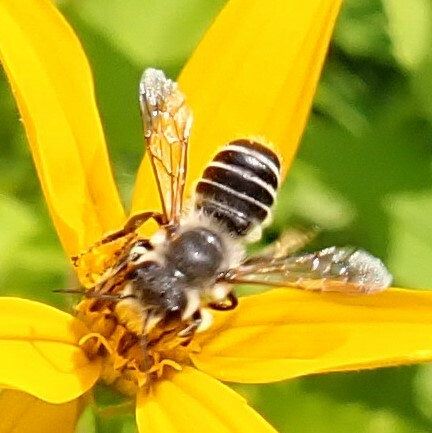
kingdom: Animalia
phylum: Arthropoda
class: Insecta
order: Hymenoptera
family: Megachilidae
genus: Megachile
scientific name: Megachile pugnata
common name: Pugnacious leafcutter bee
